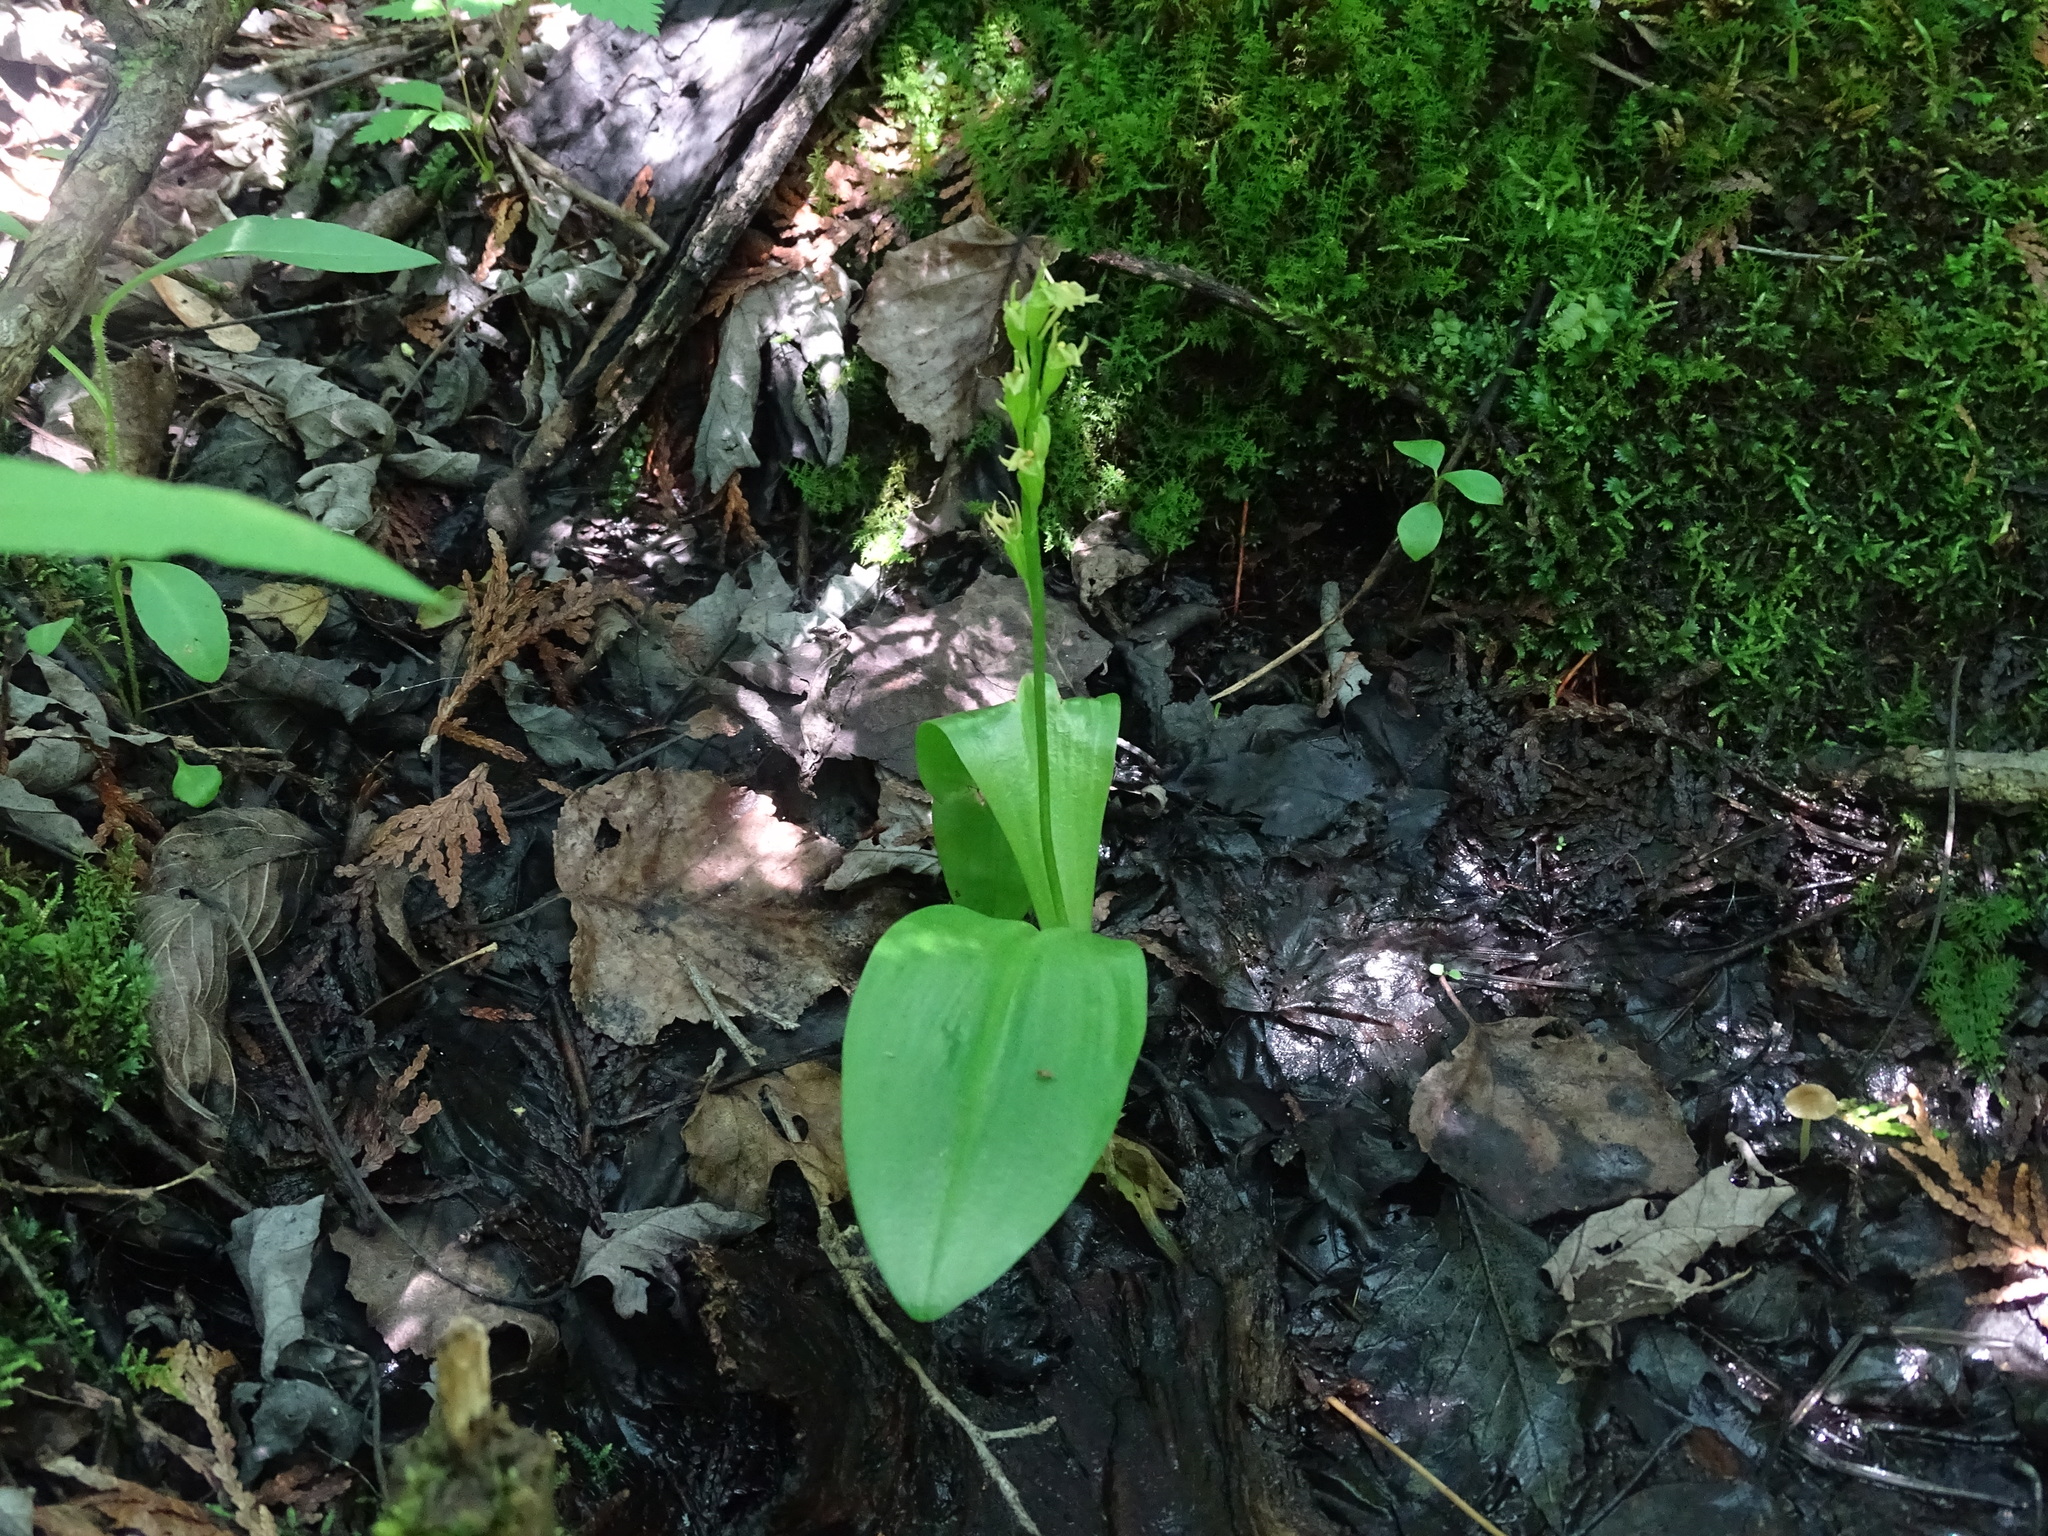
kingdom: Animalia
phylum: Arthropoda
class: Insecta
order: Coleoptera
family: Curculionidae
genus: Liparis
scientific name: Liparis loeselii
